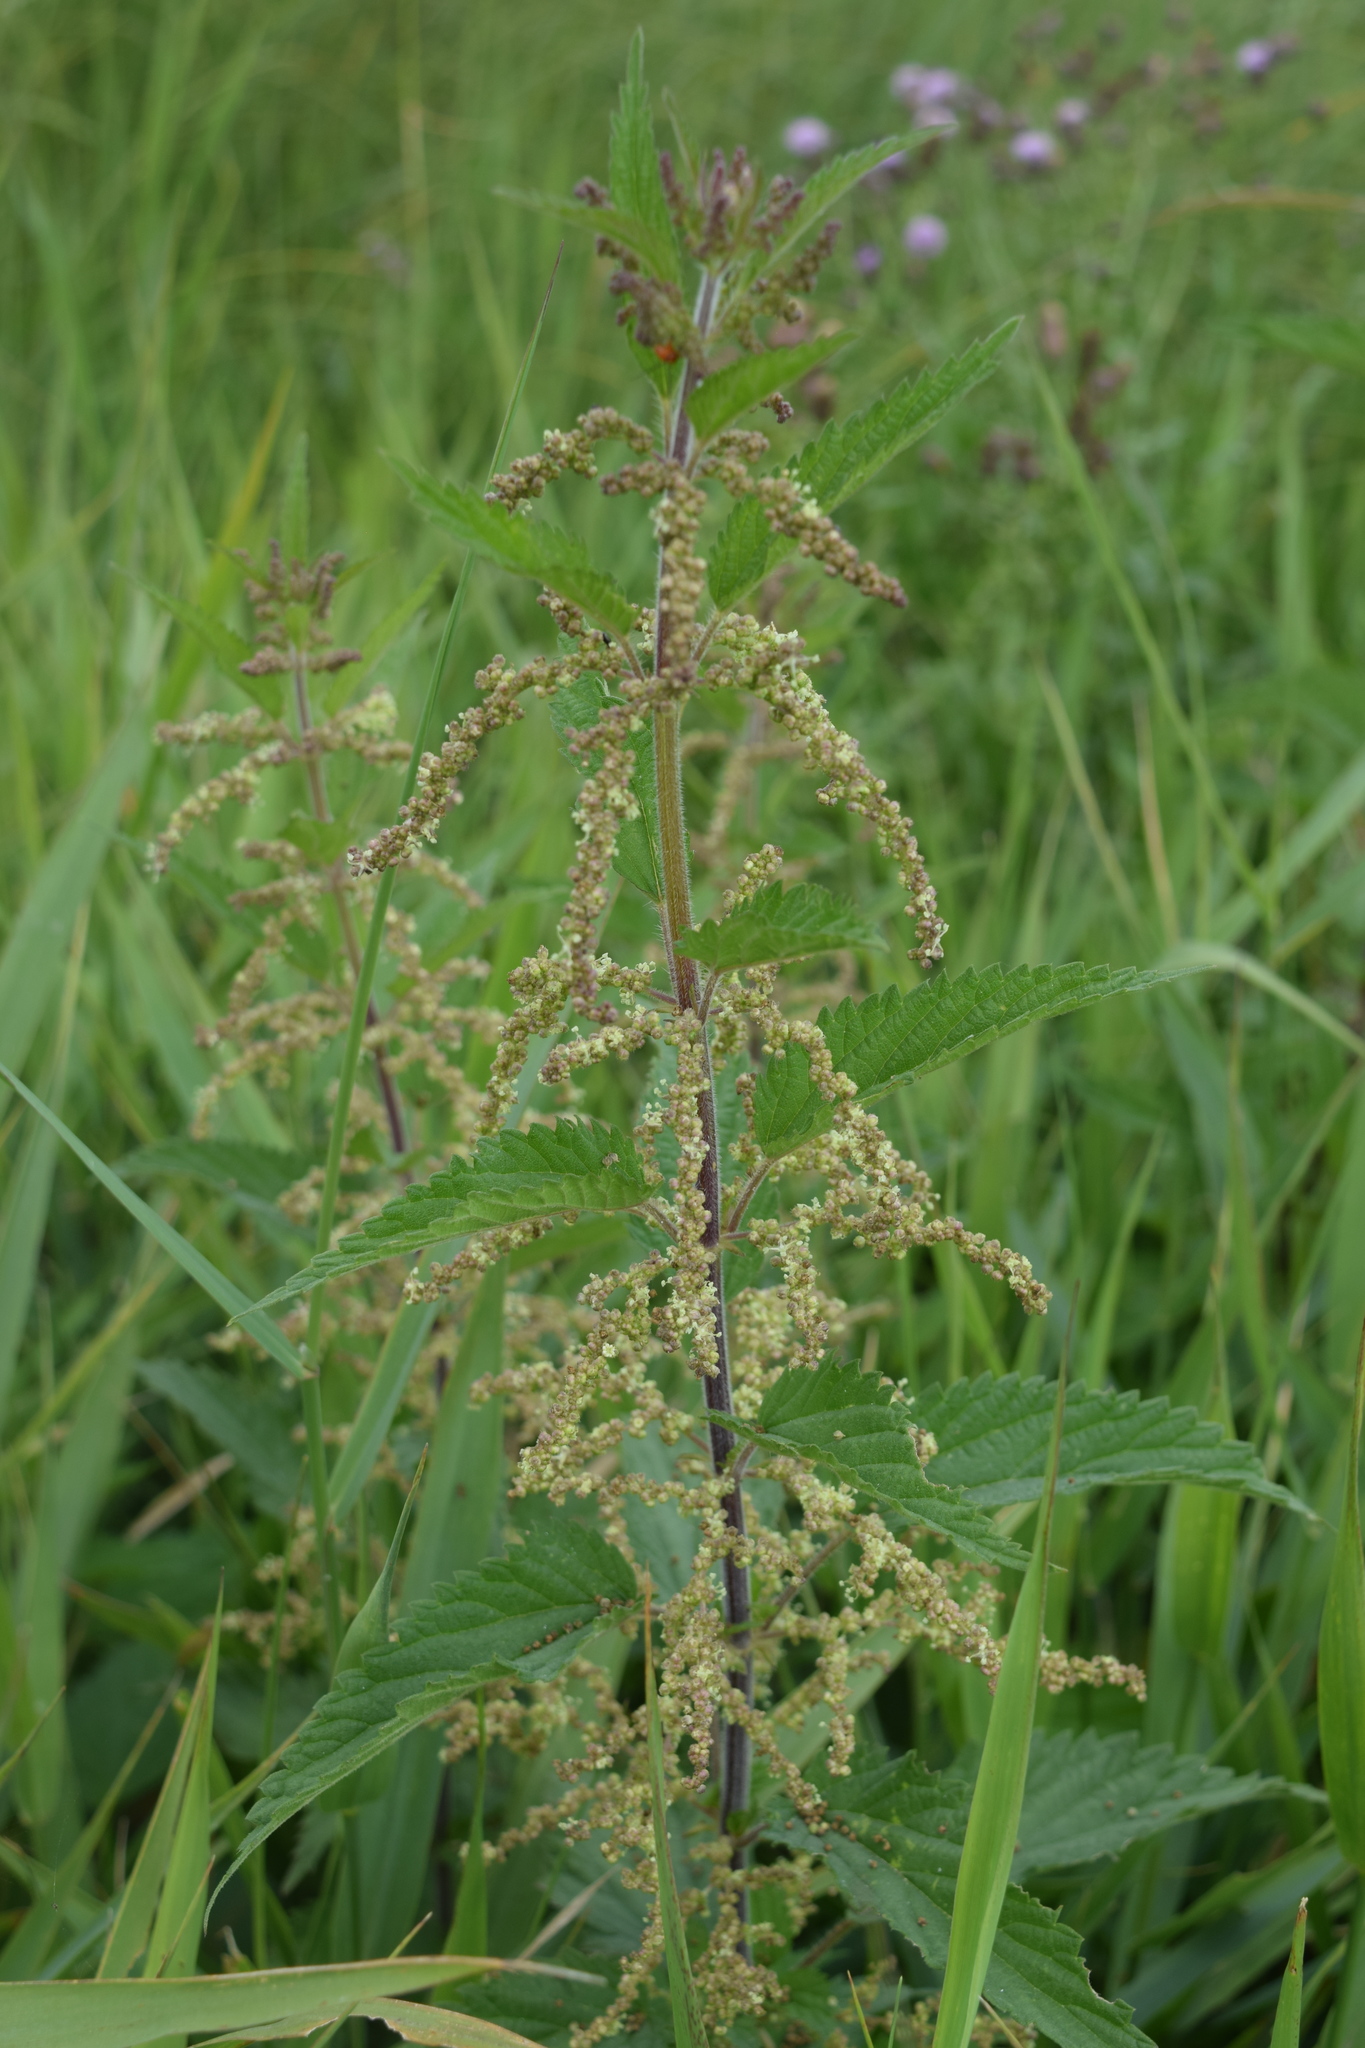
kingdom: Plantae
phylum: Tracheophyta
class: Magnoliopsida
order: Rosales
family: Urticaceae
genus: Urtica
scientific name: Urtica dioica
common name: Common nettle
